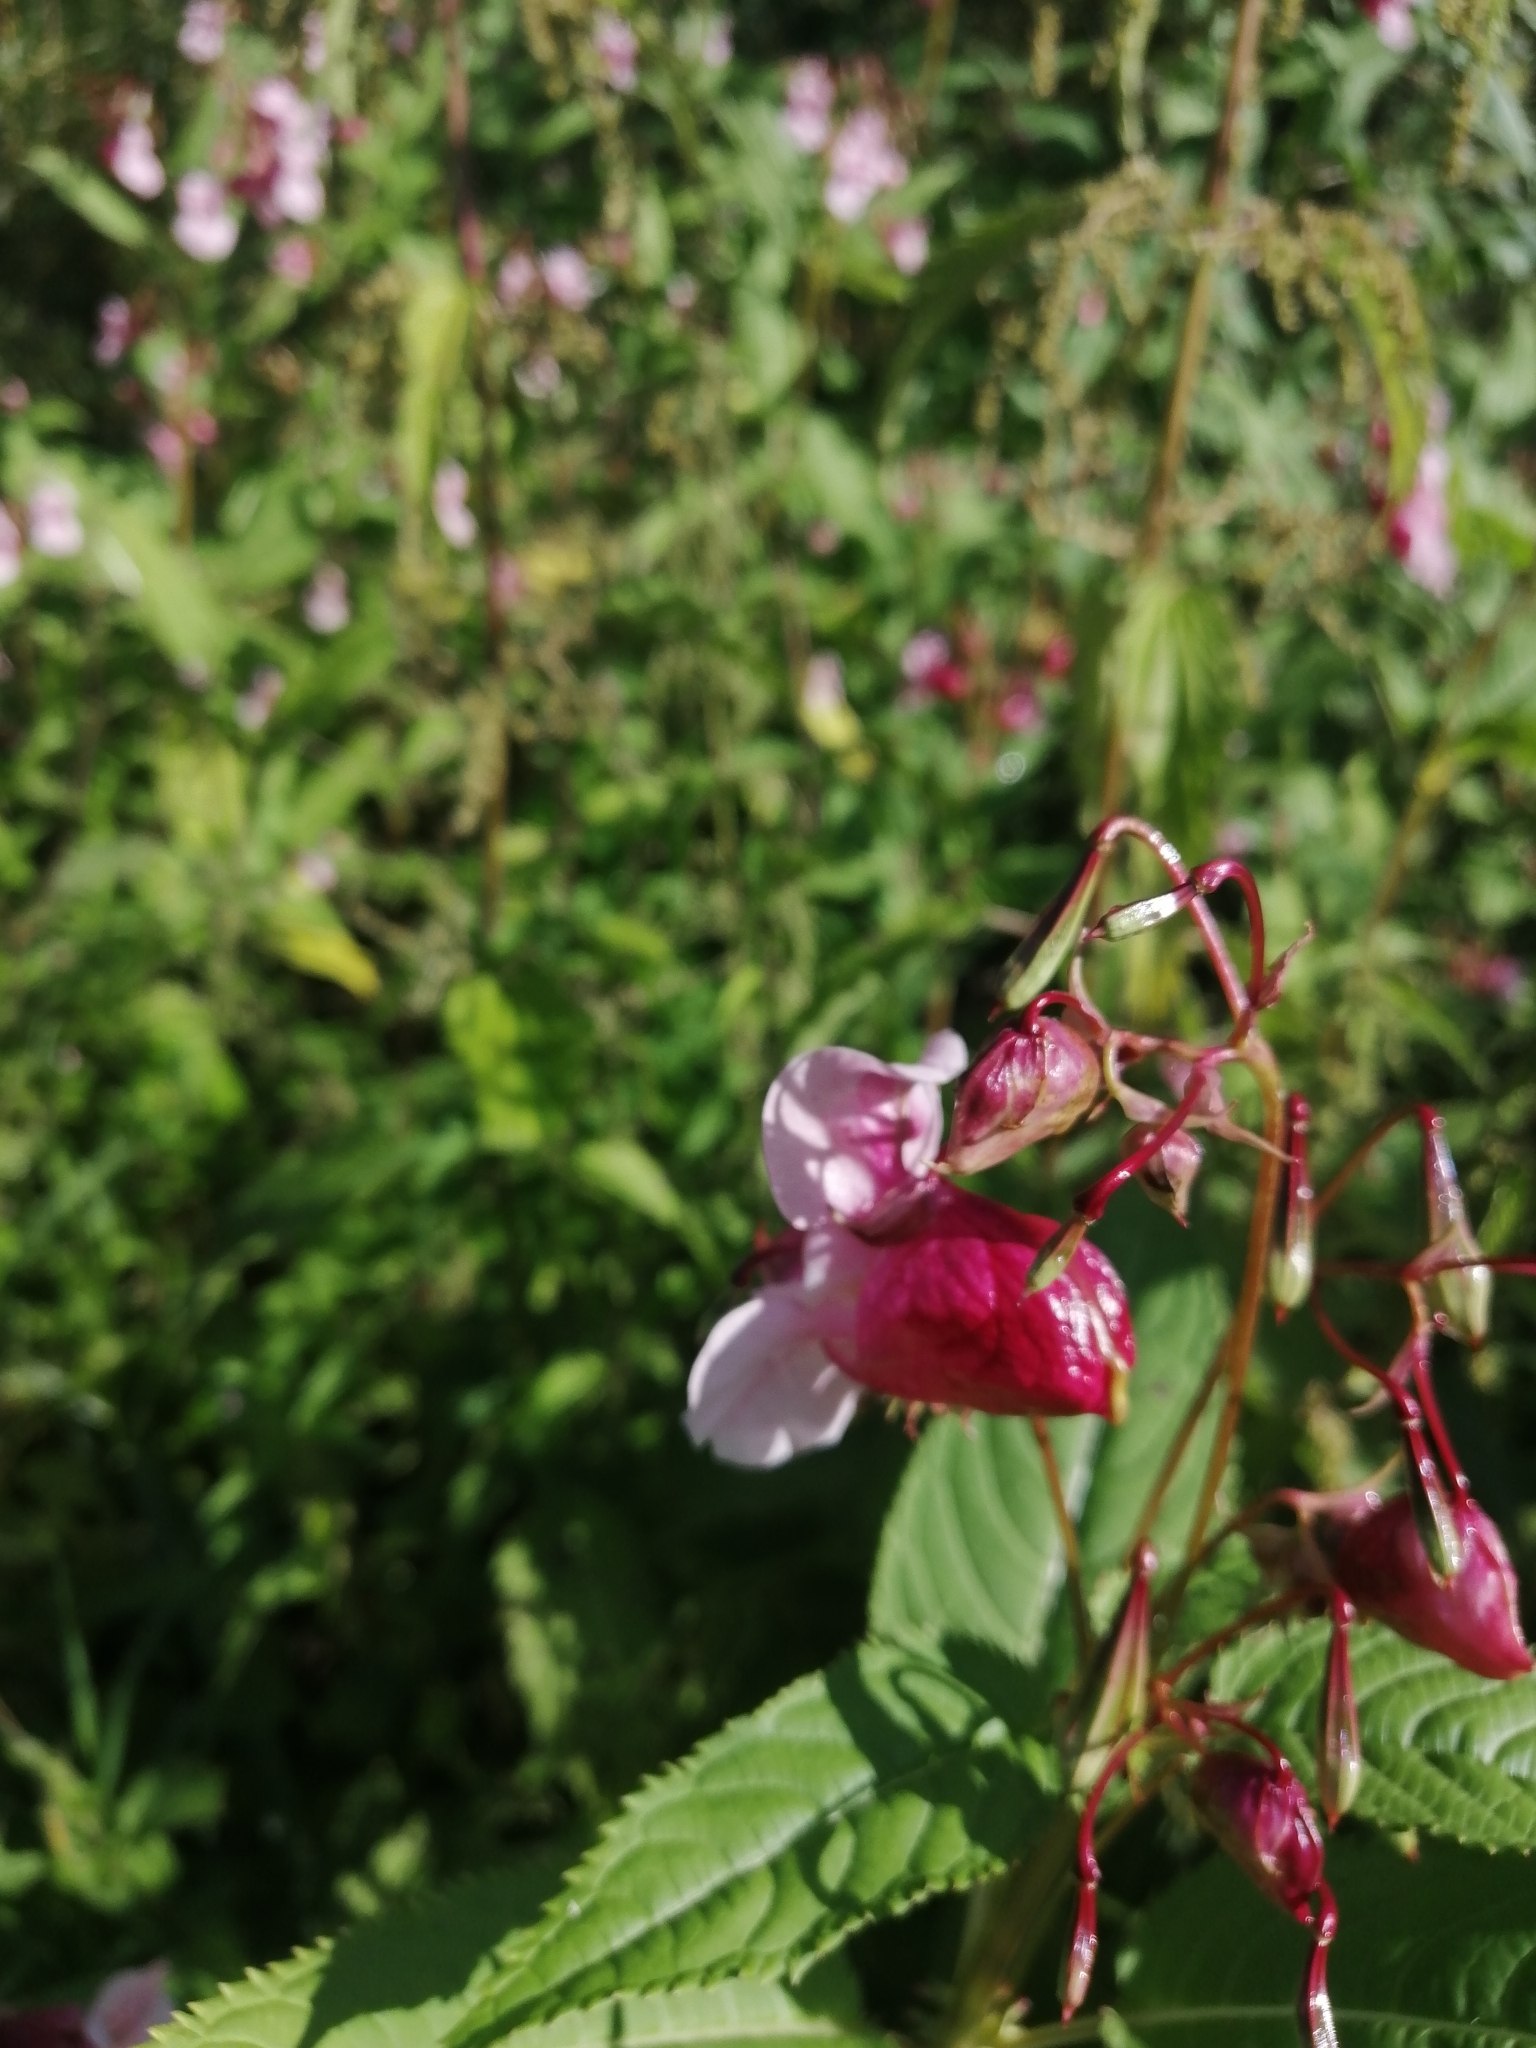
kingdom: Plantae
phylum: Tracheophyta
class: Magnoliopsida
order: Ericales
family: Balsaminaceae
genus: Impatiens
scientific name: Impatiens glandulifera
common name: Himalayan balsam
